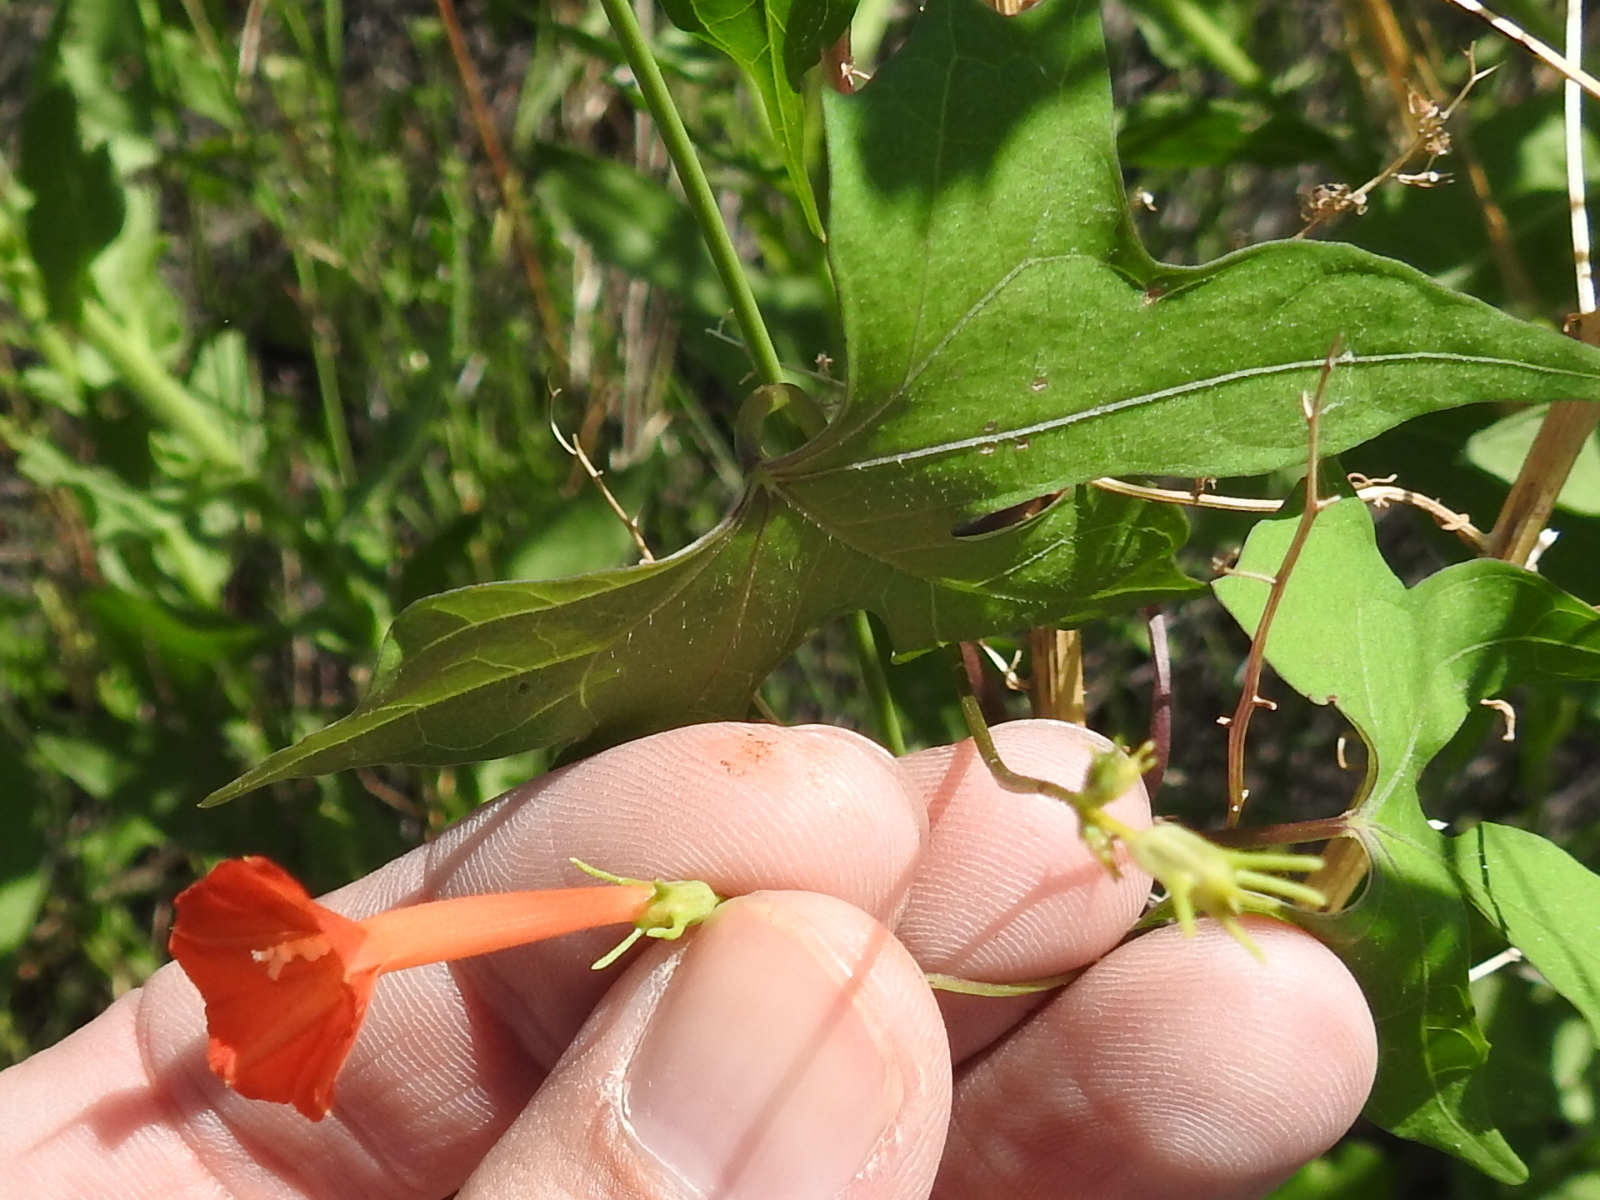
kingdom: Plantae
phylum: Tracheophyta
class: Magnoliopsida
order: Solanales
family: Convolvulaceae
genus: Ipomoea
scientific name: Ipomoea cristulata
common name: Trans-pecos morning-glory
